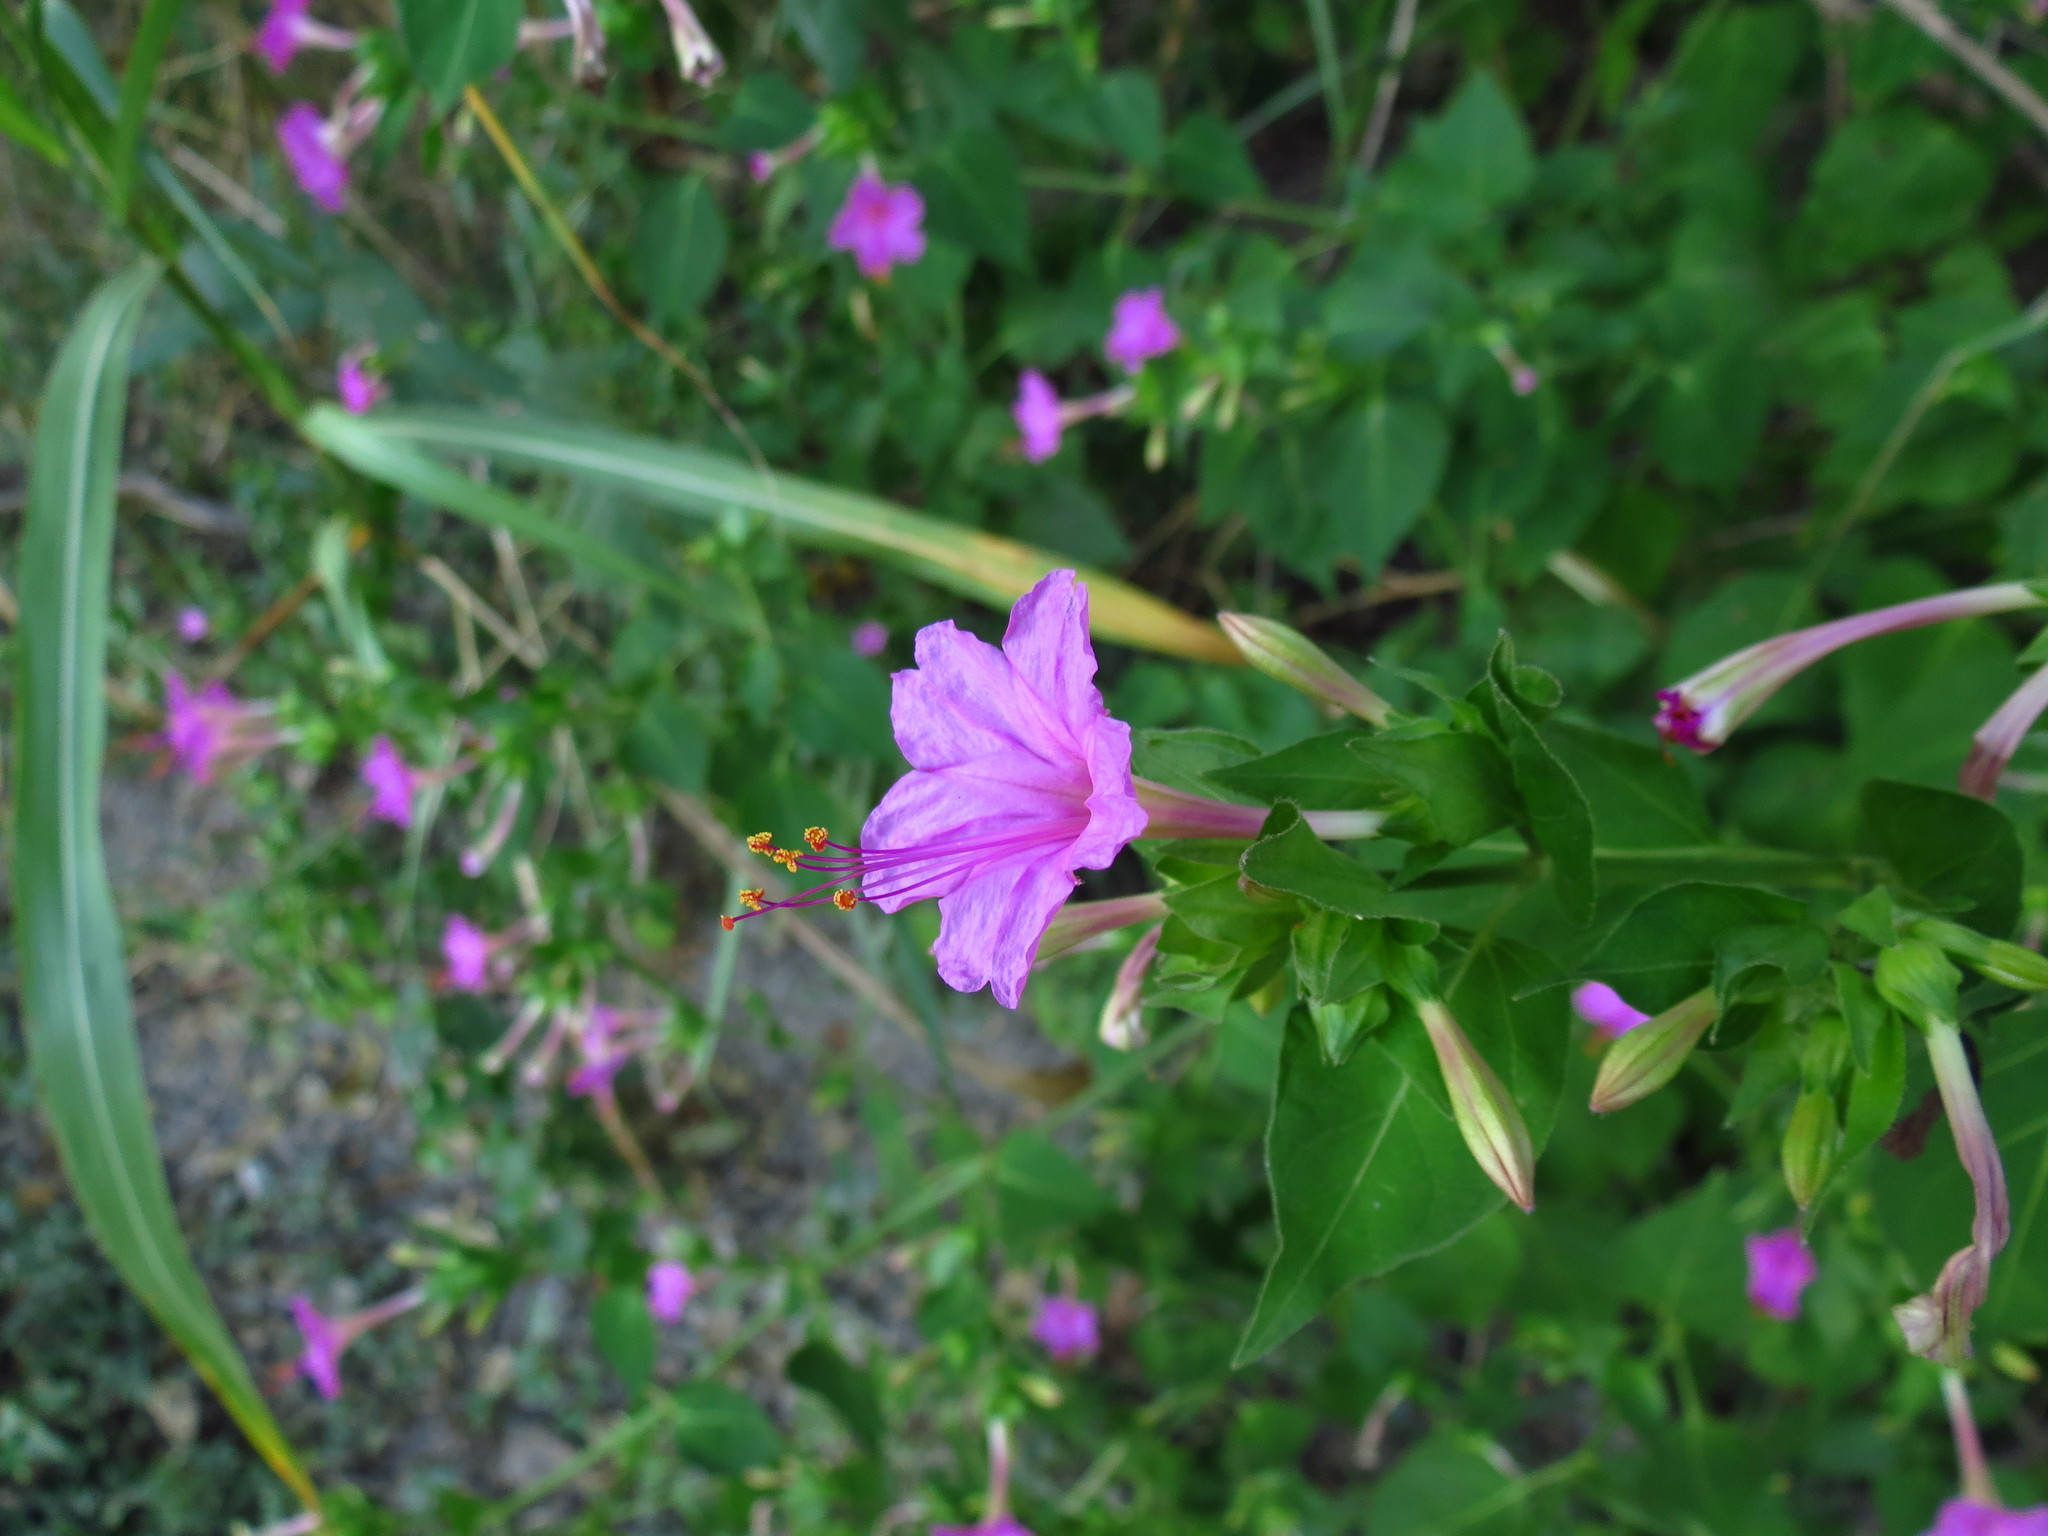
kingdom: Plantae
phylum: Tracheophyta
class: Magnoliopsida
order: Caryophyllales
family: Nyctaginaceae
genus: Mirabilis
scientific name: Mirabilis jalapa
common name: Marvel-of-peru
